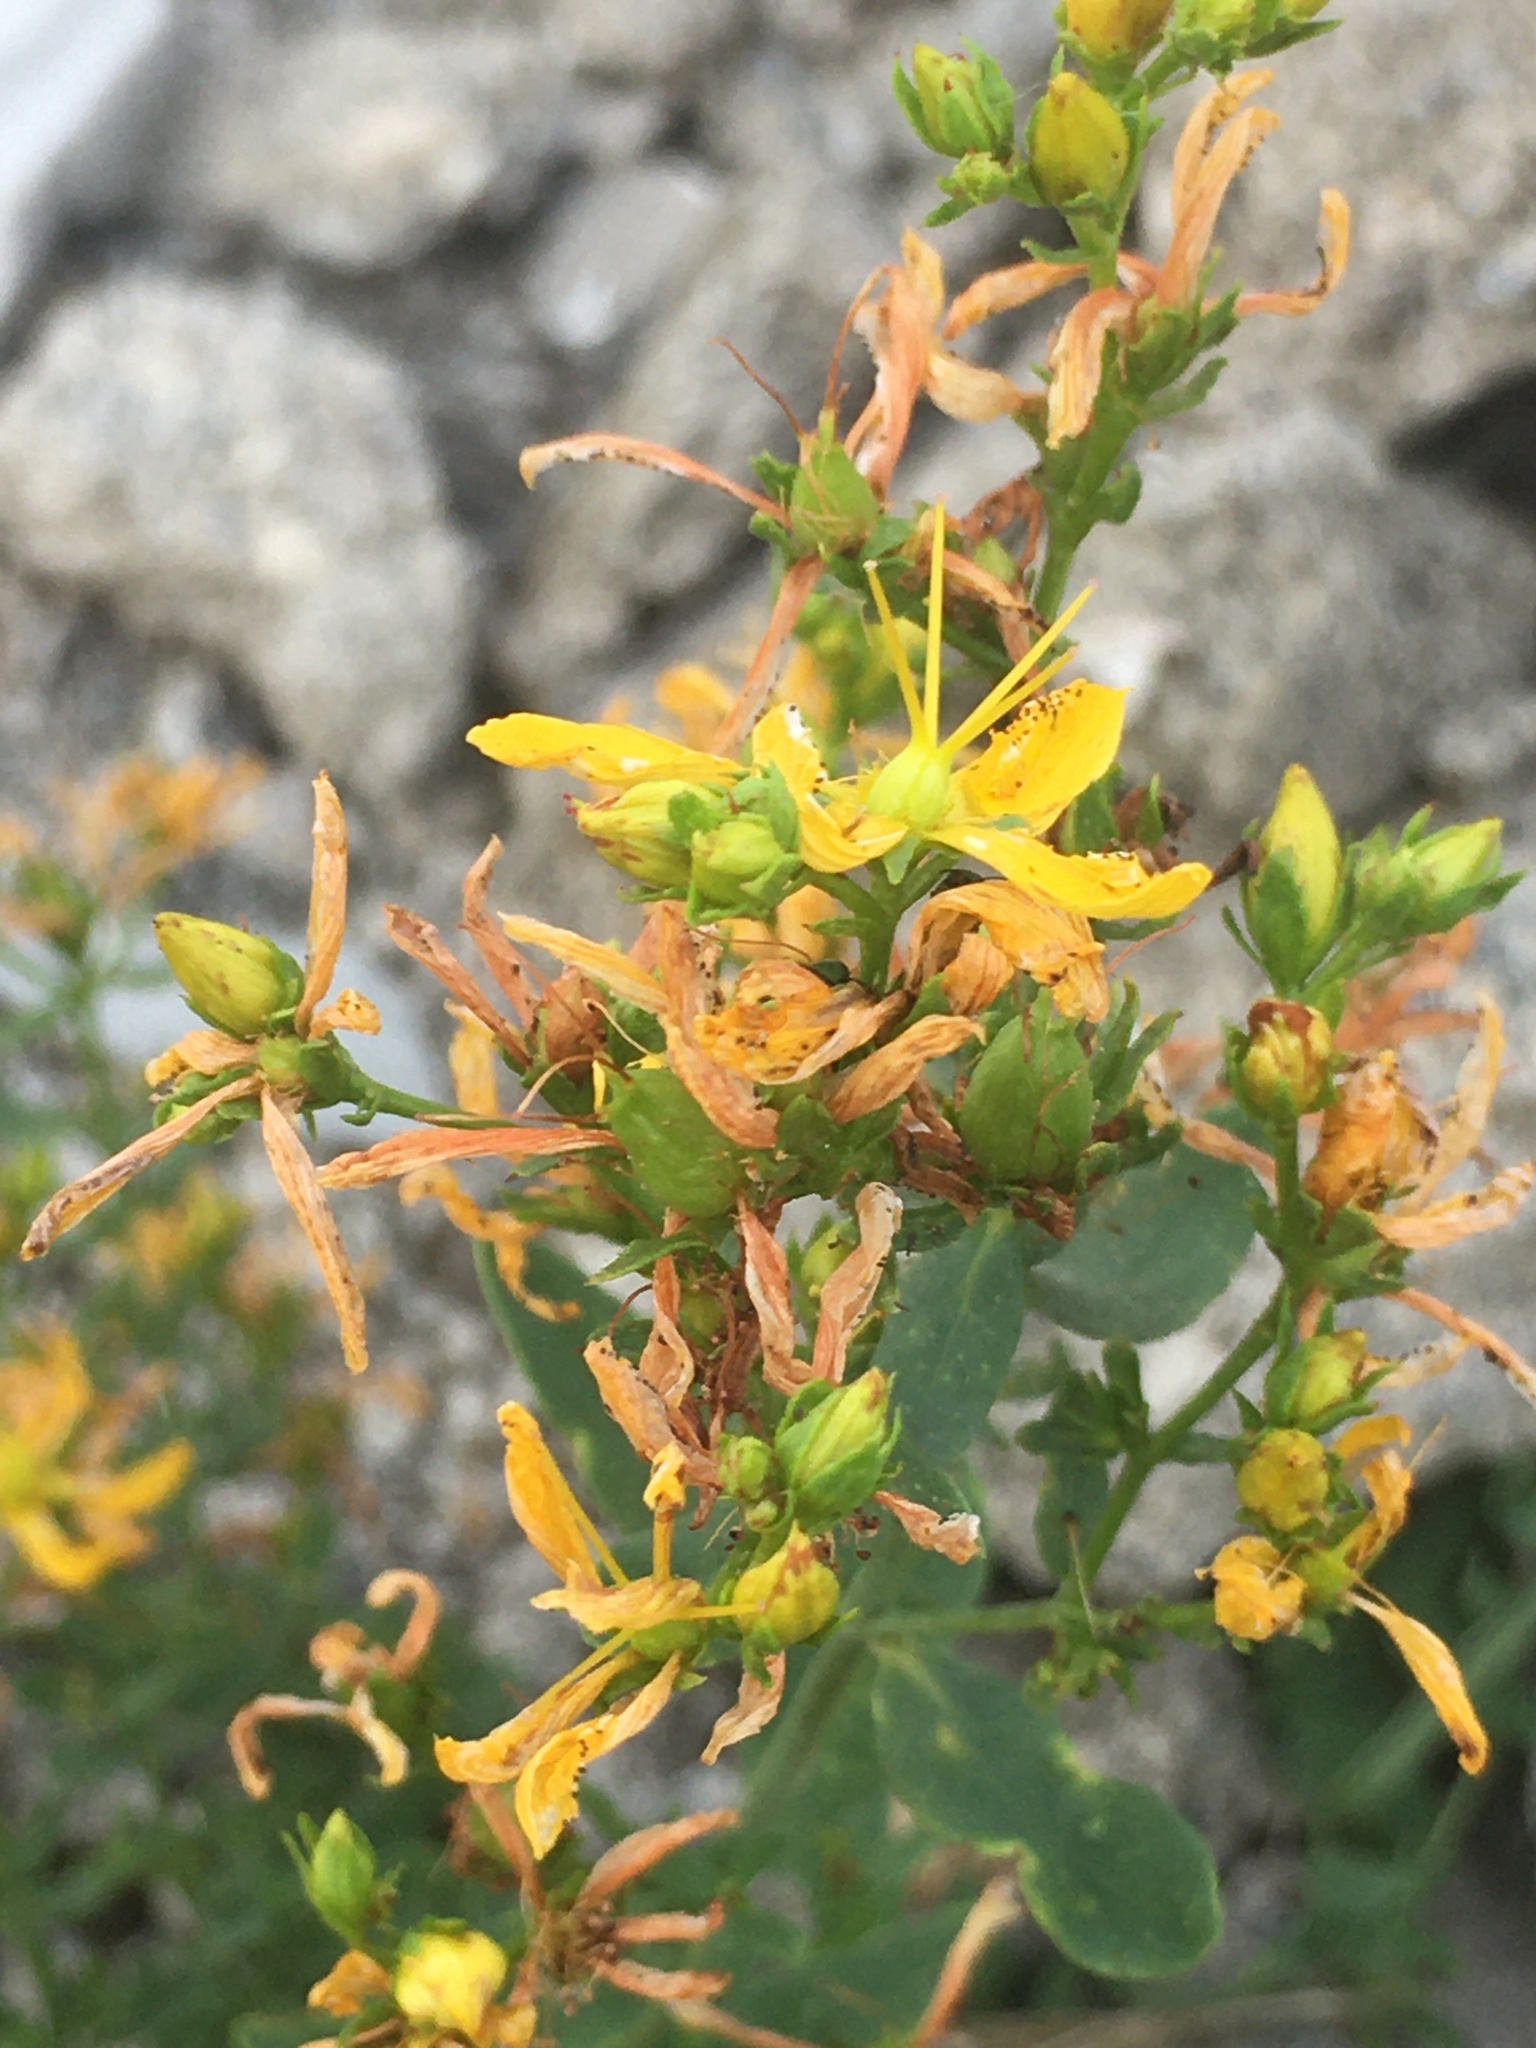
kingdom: Plantae
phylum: Tracheophyta
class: Magnoliopsida
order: Malpighiales
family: Hypericaceae
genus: Hypericum
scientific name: Hypericum perforatum
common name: Common st. johnswort
